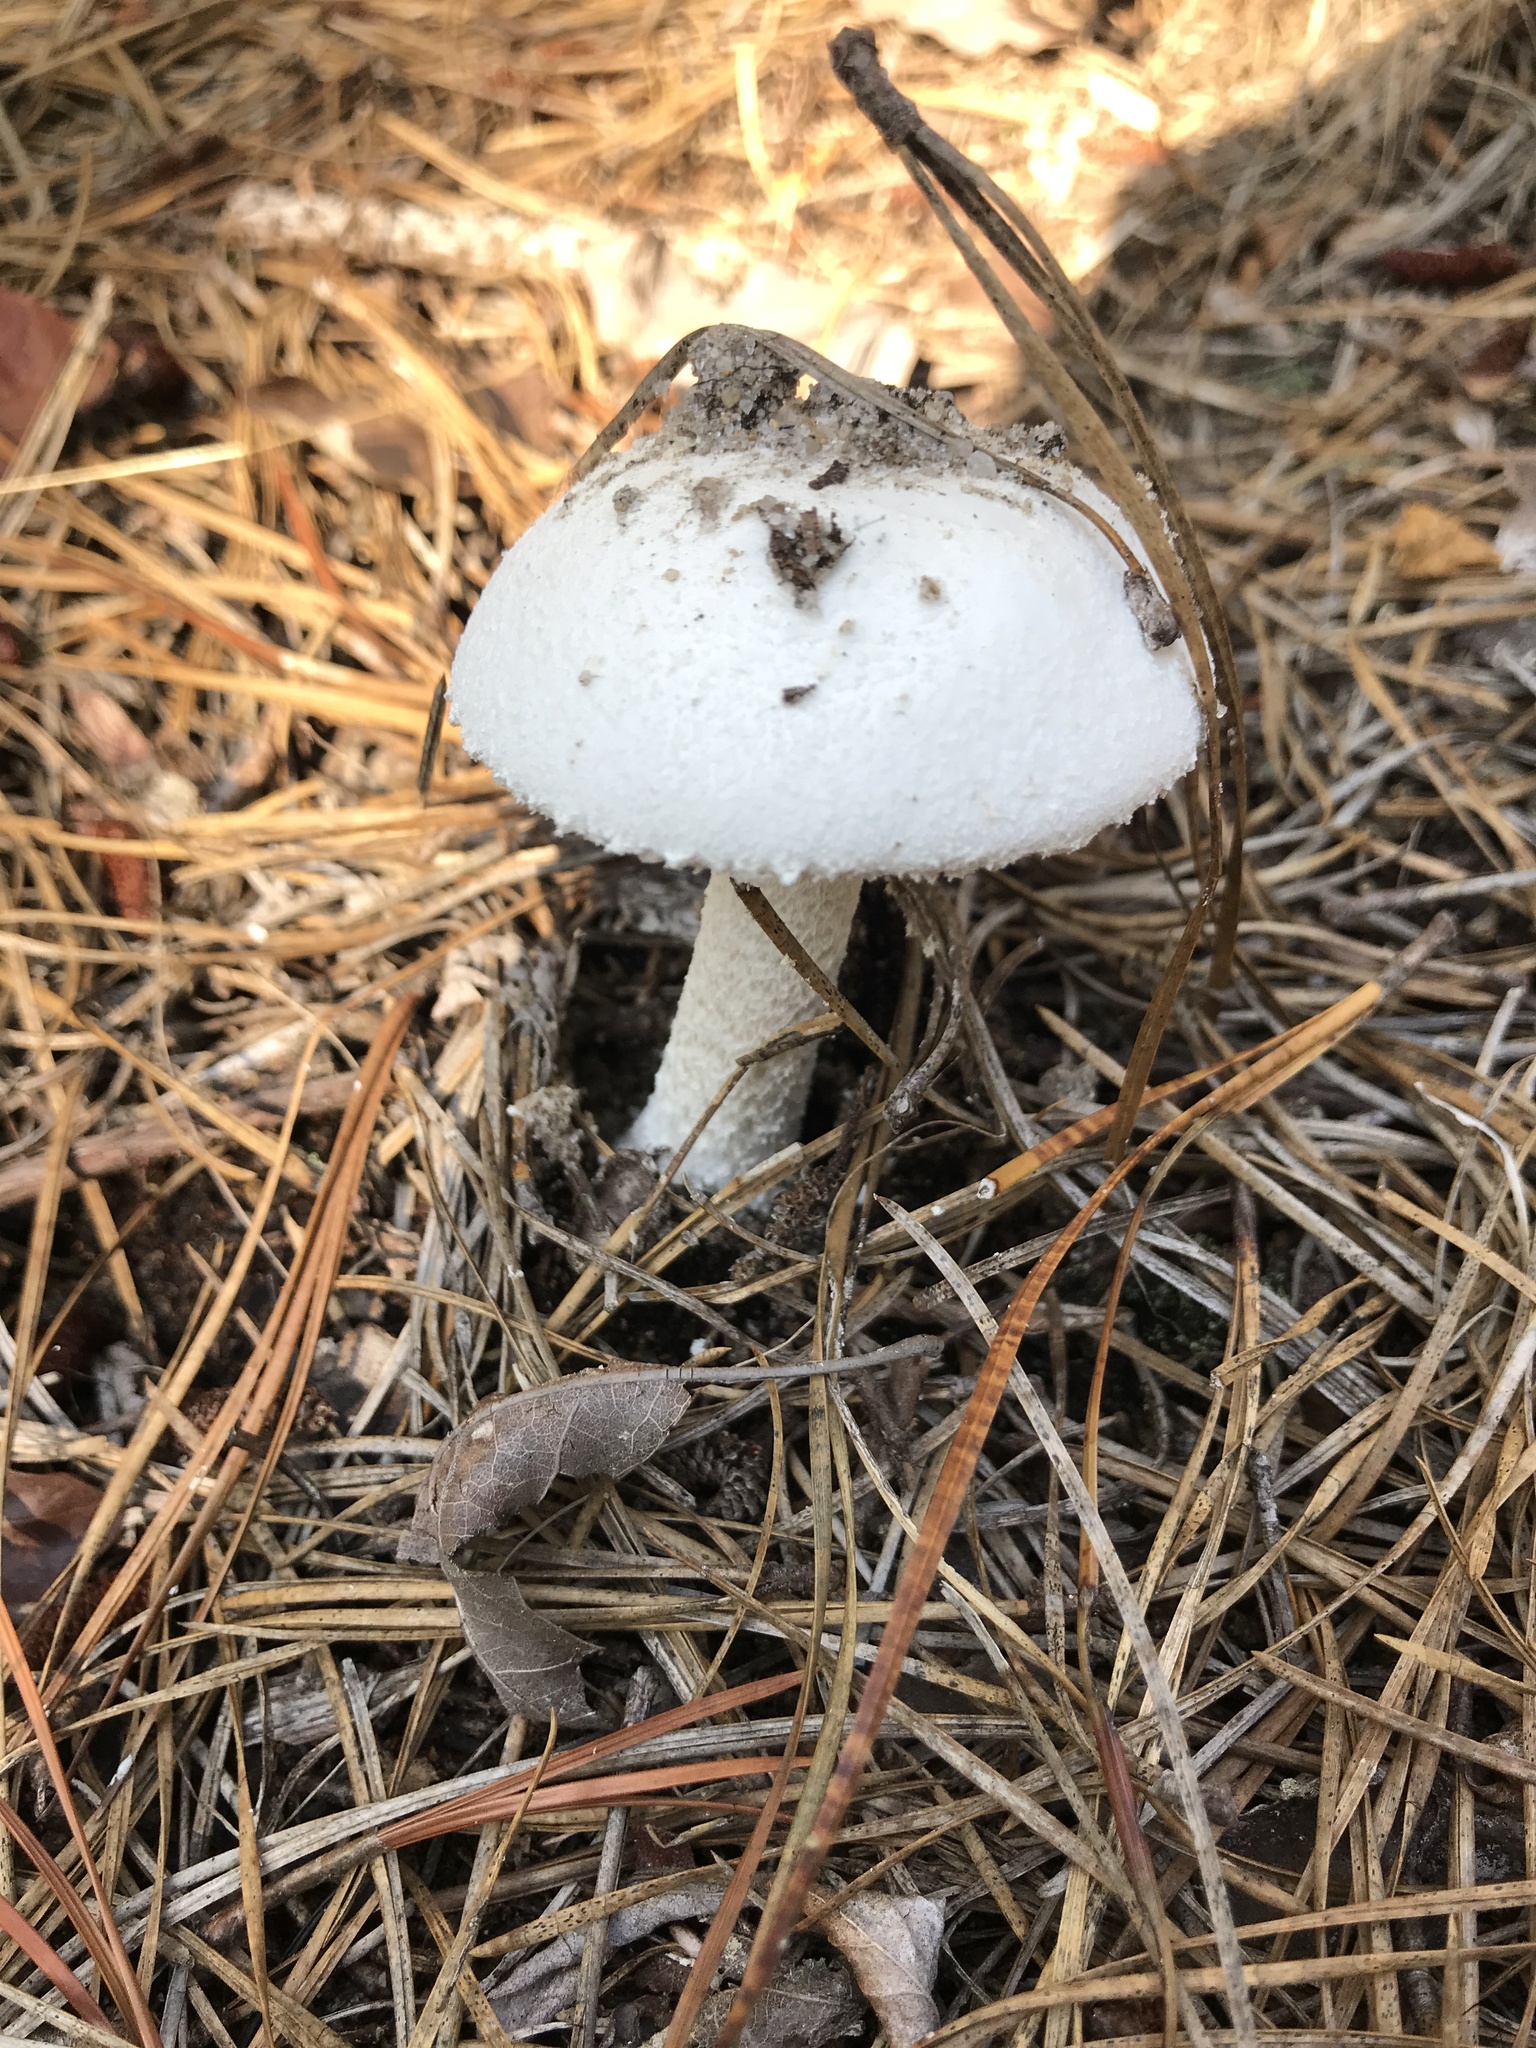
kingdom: Fungi
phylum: Basidiomycota
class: Agaricomycetes
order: Agaricales
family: Amanitaceae
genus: Amanita
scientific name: Amanita longipes
